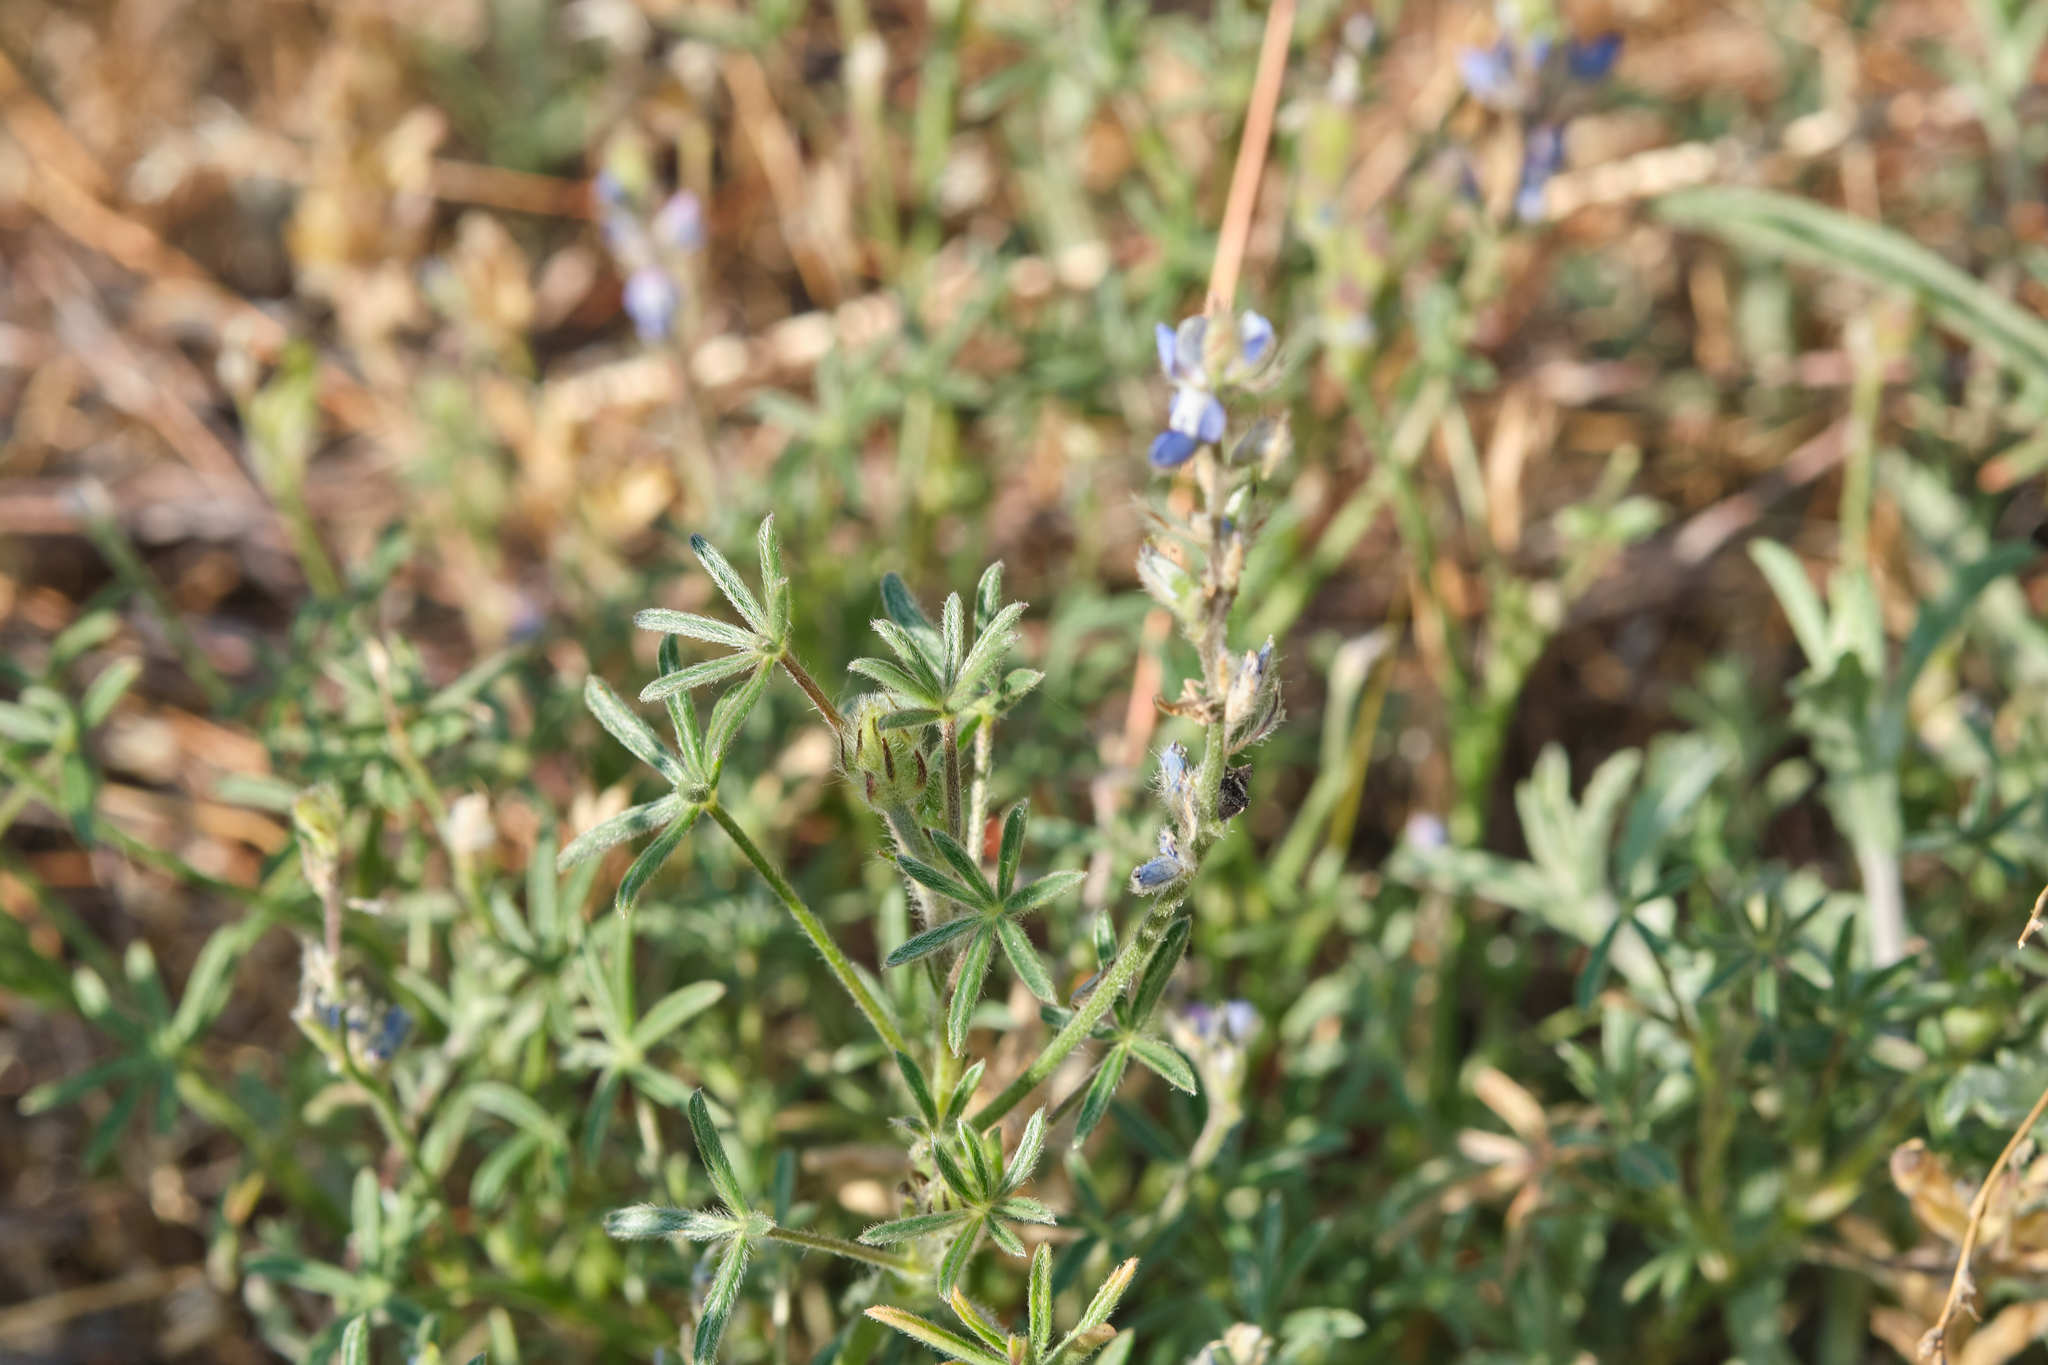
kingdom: Plantae
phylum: Tracheophyta
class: Magnoliopsida
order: Fabales
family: Fabaceae
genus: Lupinus
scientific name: Lupinus bicolor
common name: Miniature lupine
